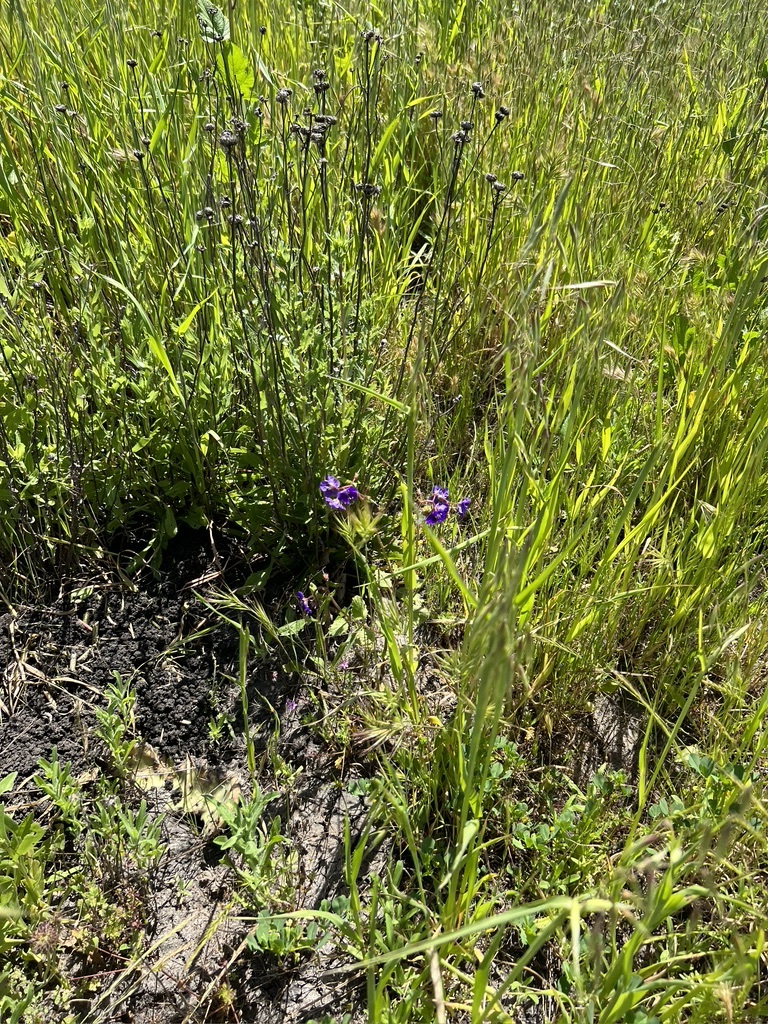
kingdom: Plantae
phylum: Tracheophyta
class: Magnoliopsida
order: Boraginales
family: Hydrophyllaceae
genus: Phacelia
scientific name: Phacelia parryi
